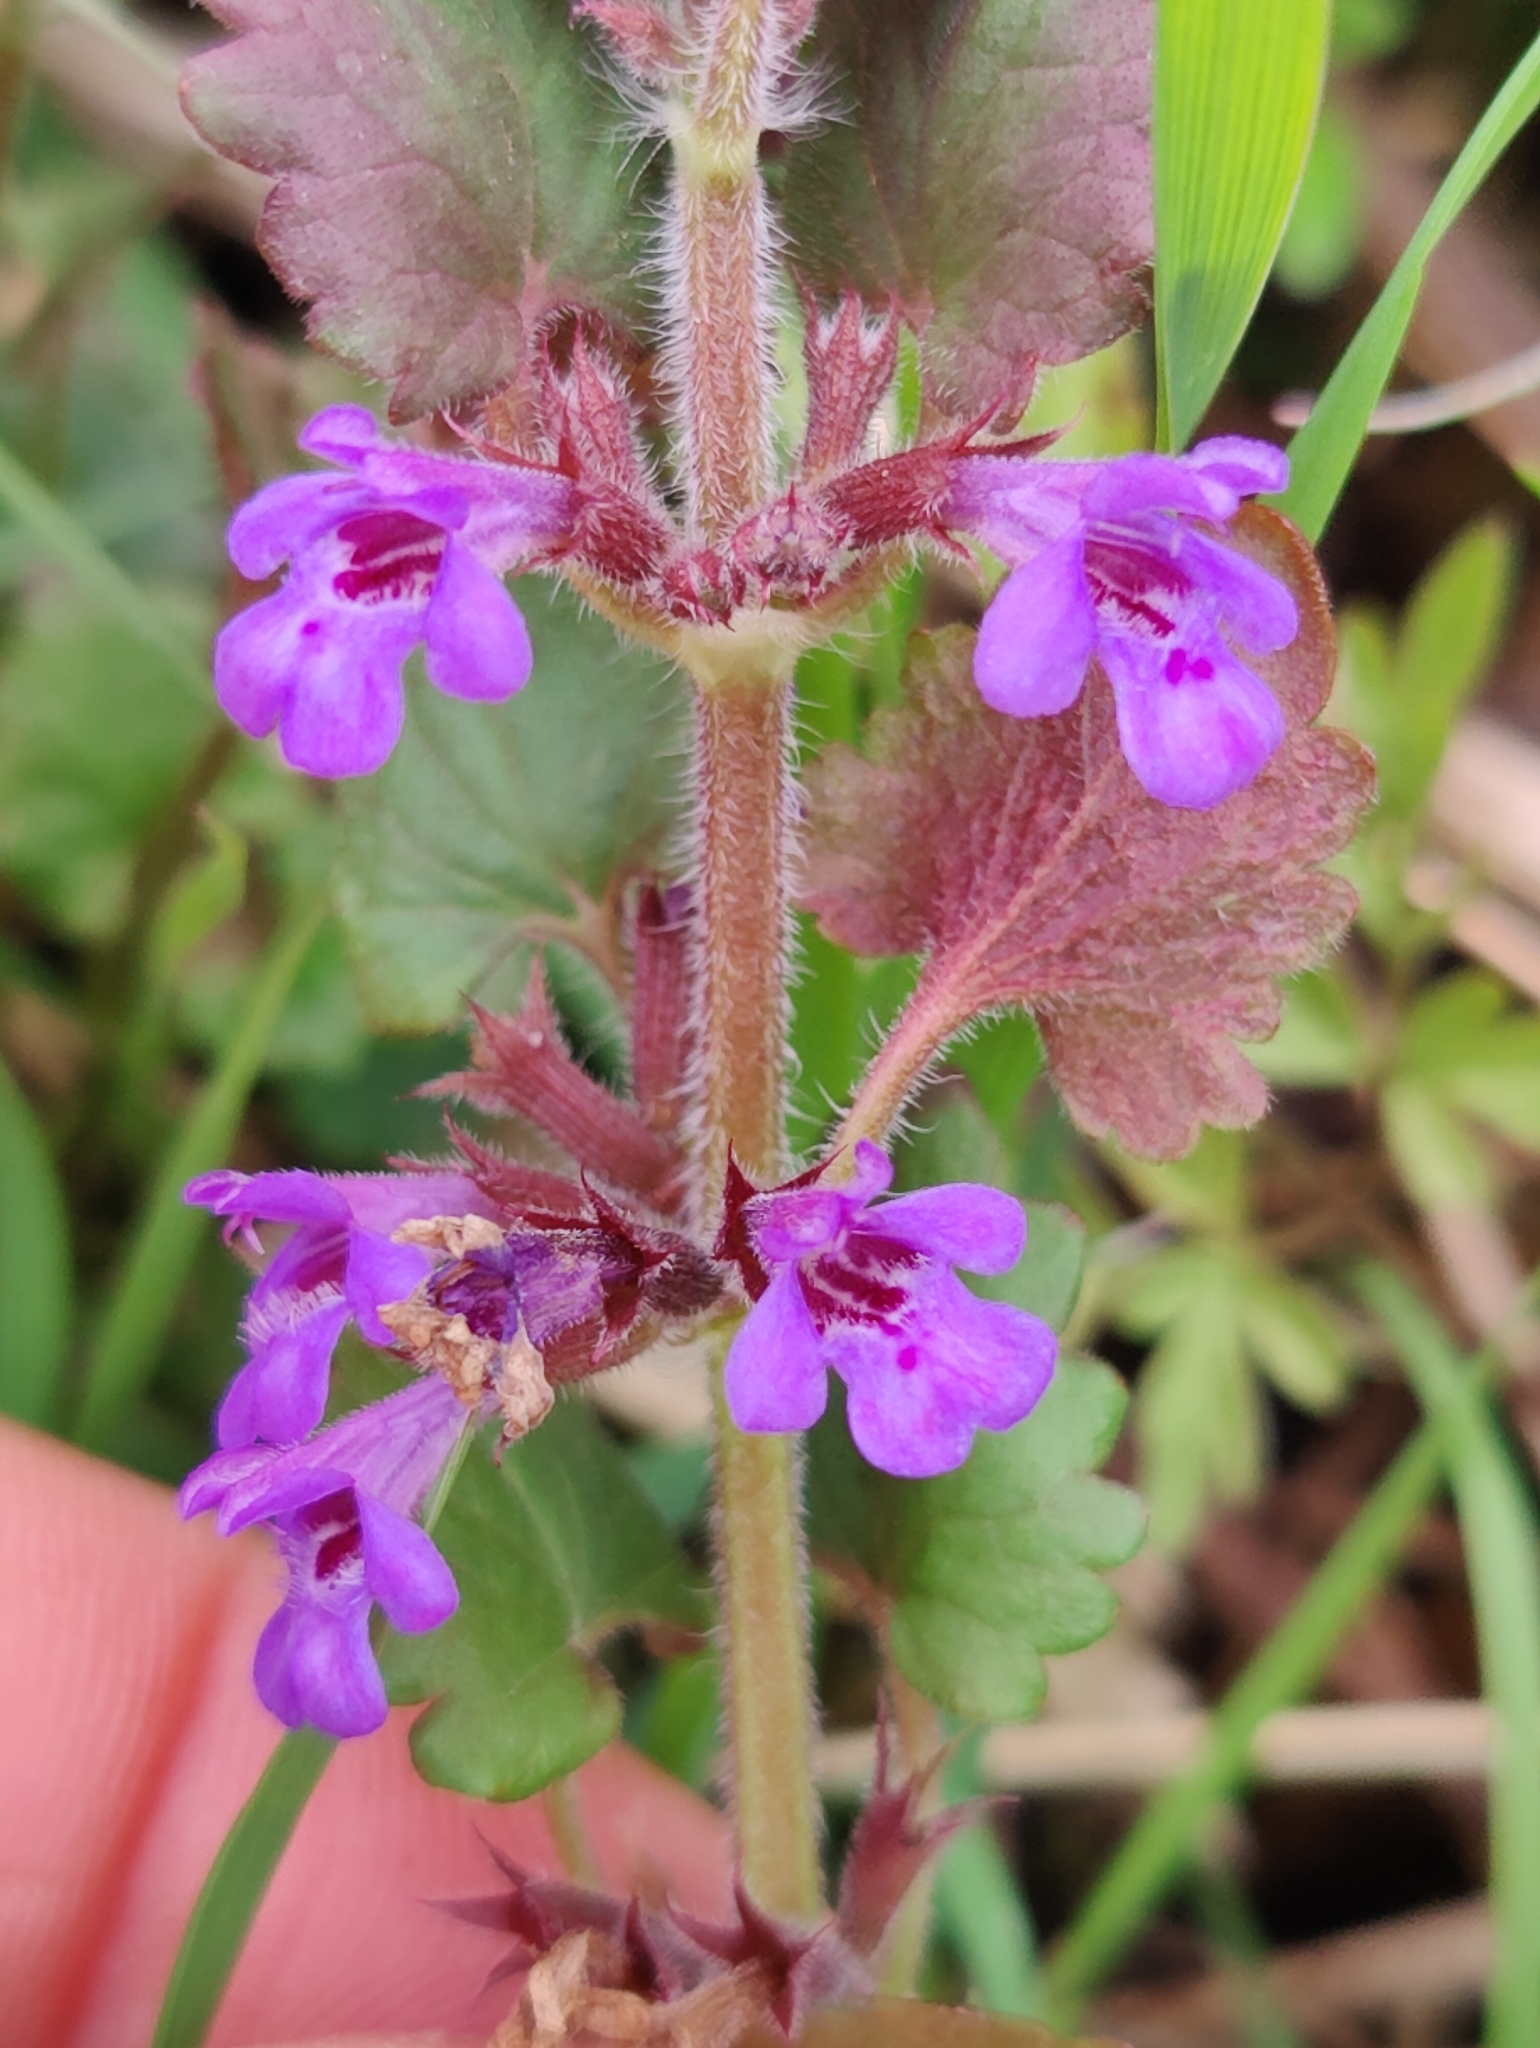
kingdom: Plantae
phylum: Tracheophyta
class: Magnoliopsida
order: Lamiales
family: Lamiaceae
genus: Glechoma
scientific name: Glechoma hederacea
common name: Ground ivy
